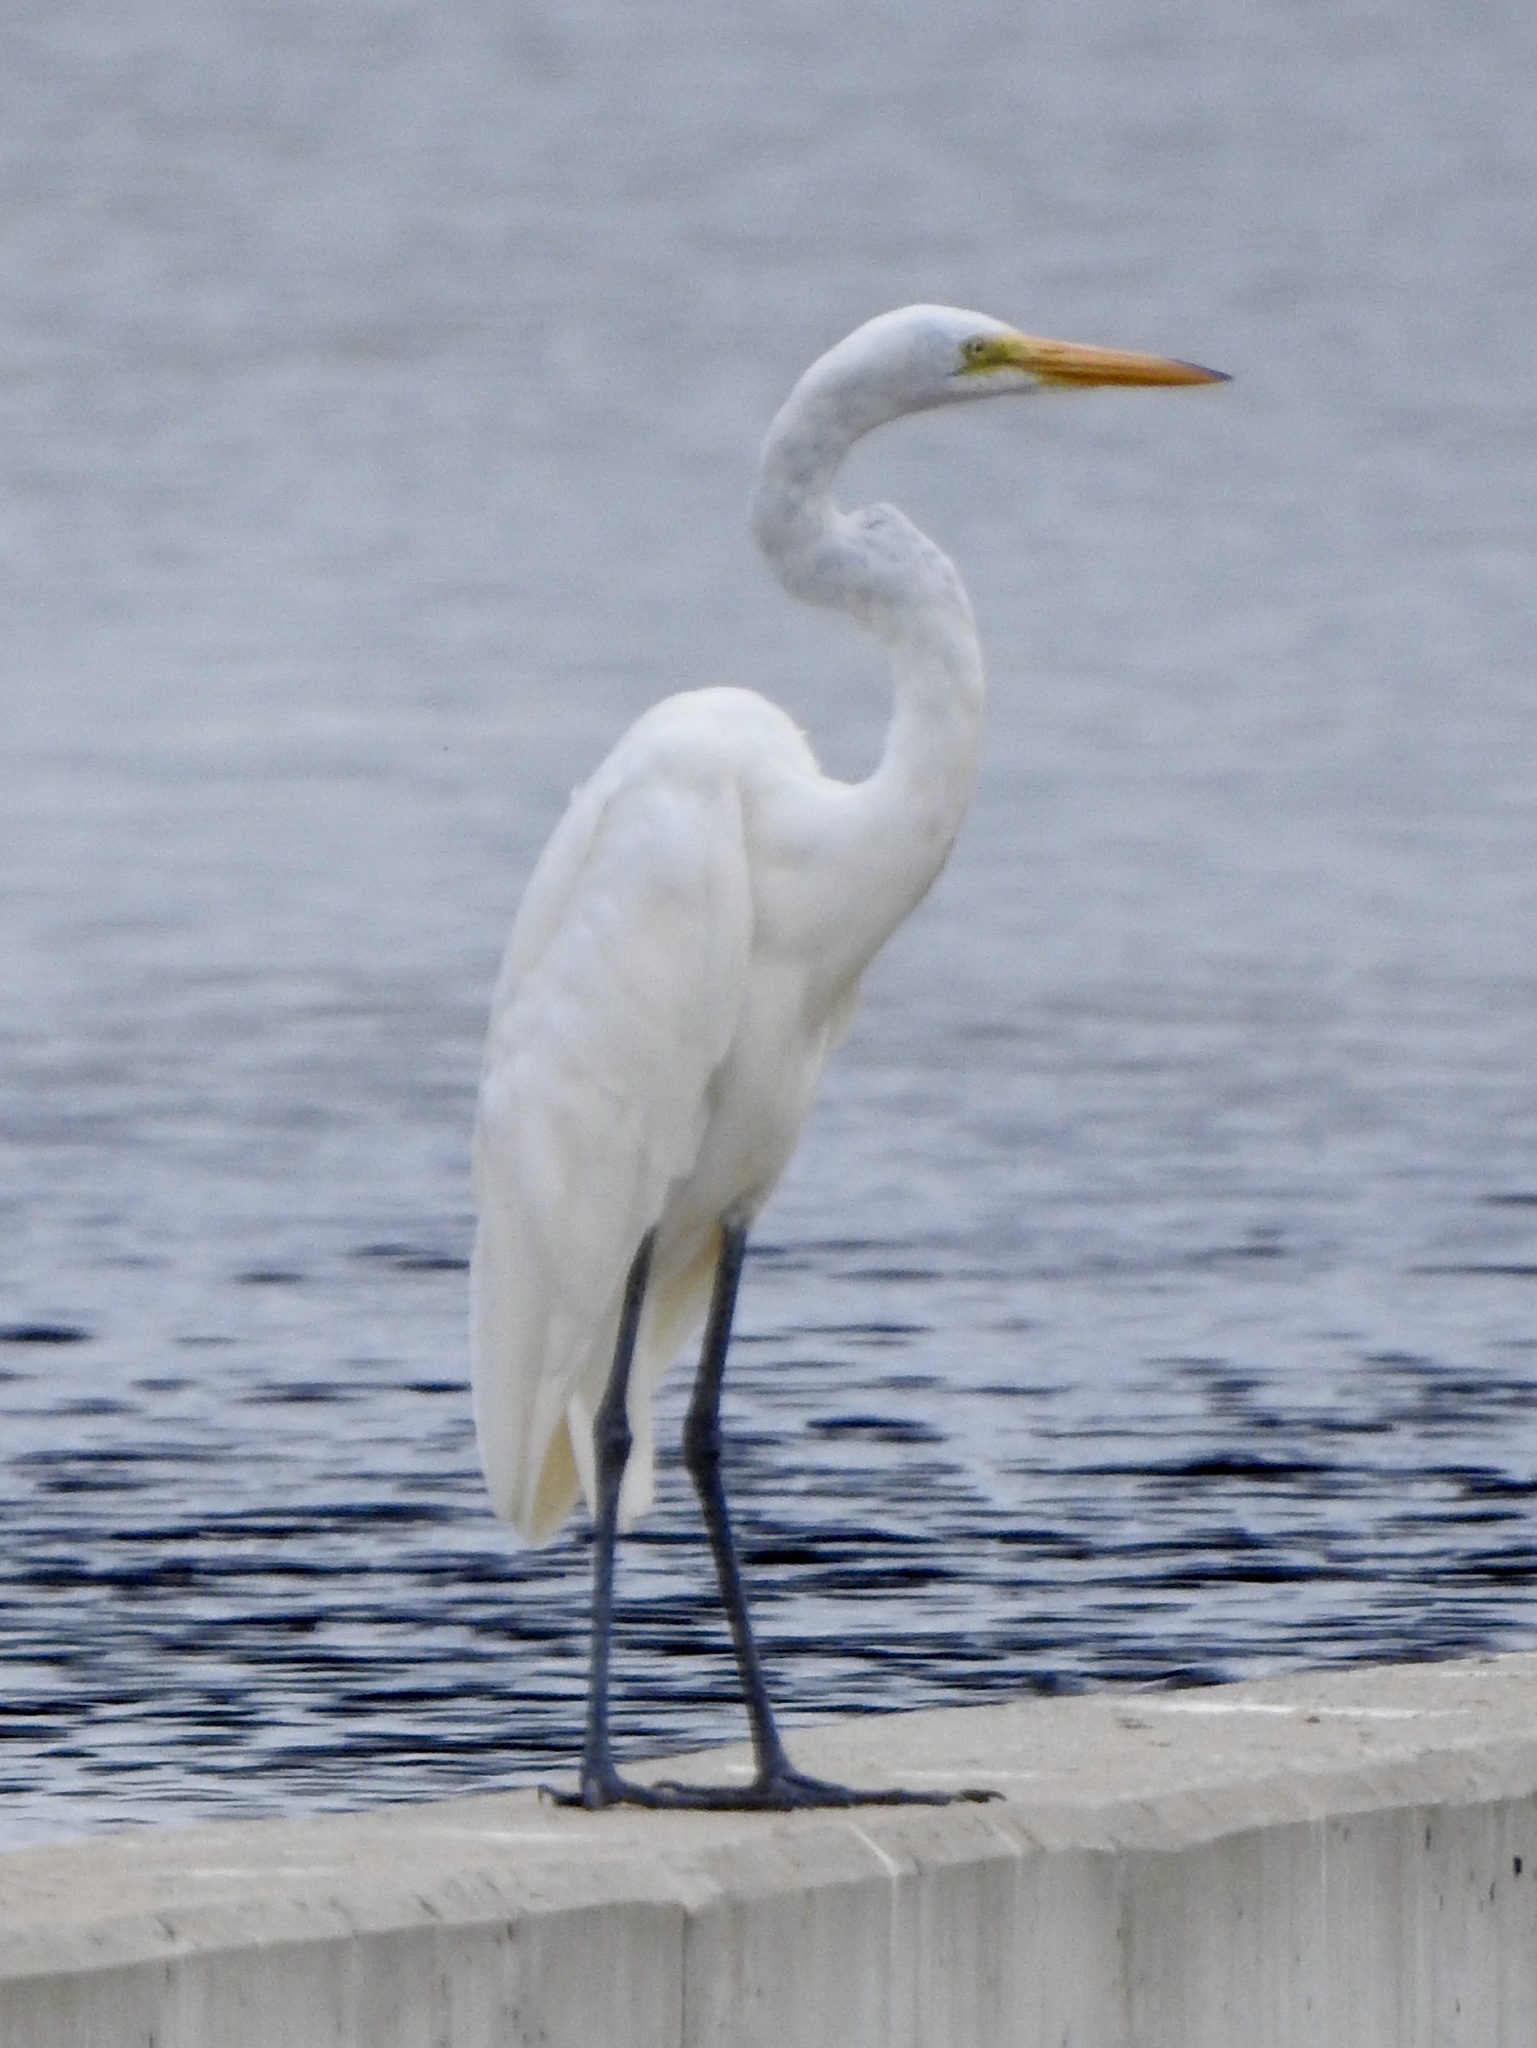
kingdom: Animalia
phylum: Chordata
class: Aves
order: Pelecaniformes
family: Ardeidae
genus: Ardea
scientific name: Ardea alba
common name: Great egret
